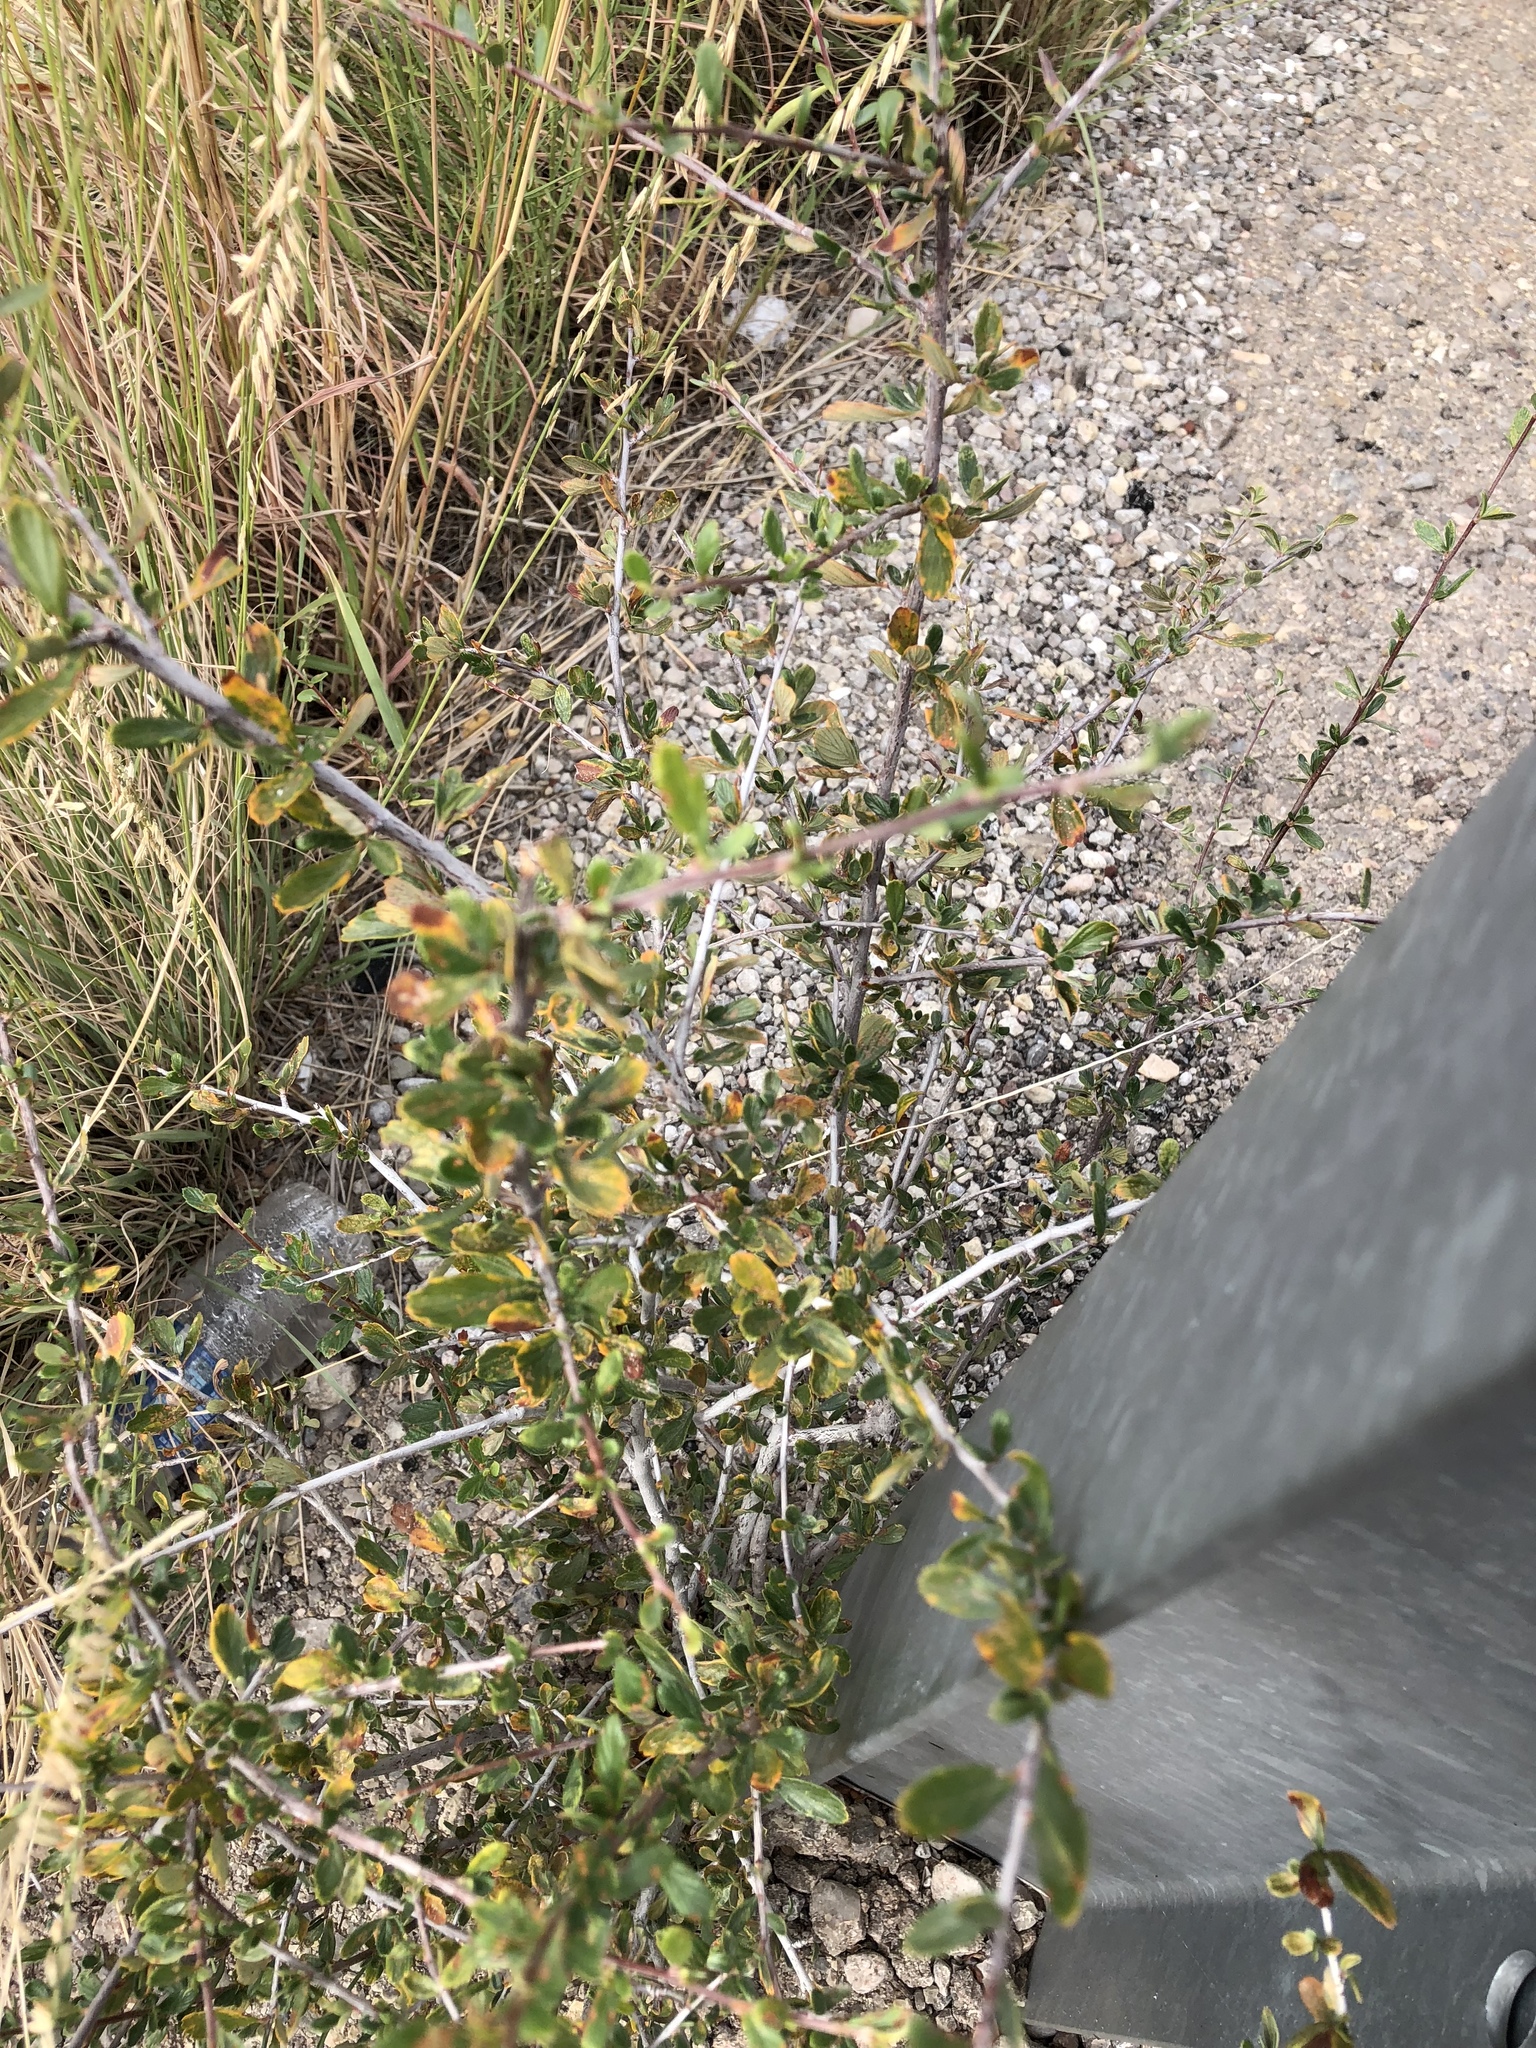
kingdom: Plantae
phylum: Tracheophyta
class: Magnoliopsida
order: Rosales
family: Rosaceae
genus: Cercocarpus
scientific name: Cercocarpus breviflorus
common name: Wright's mountain-mahogany
